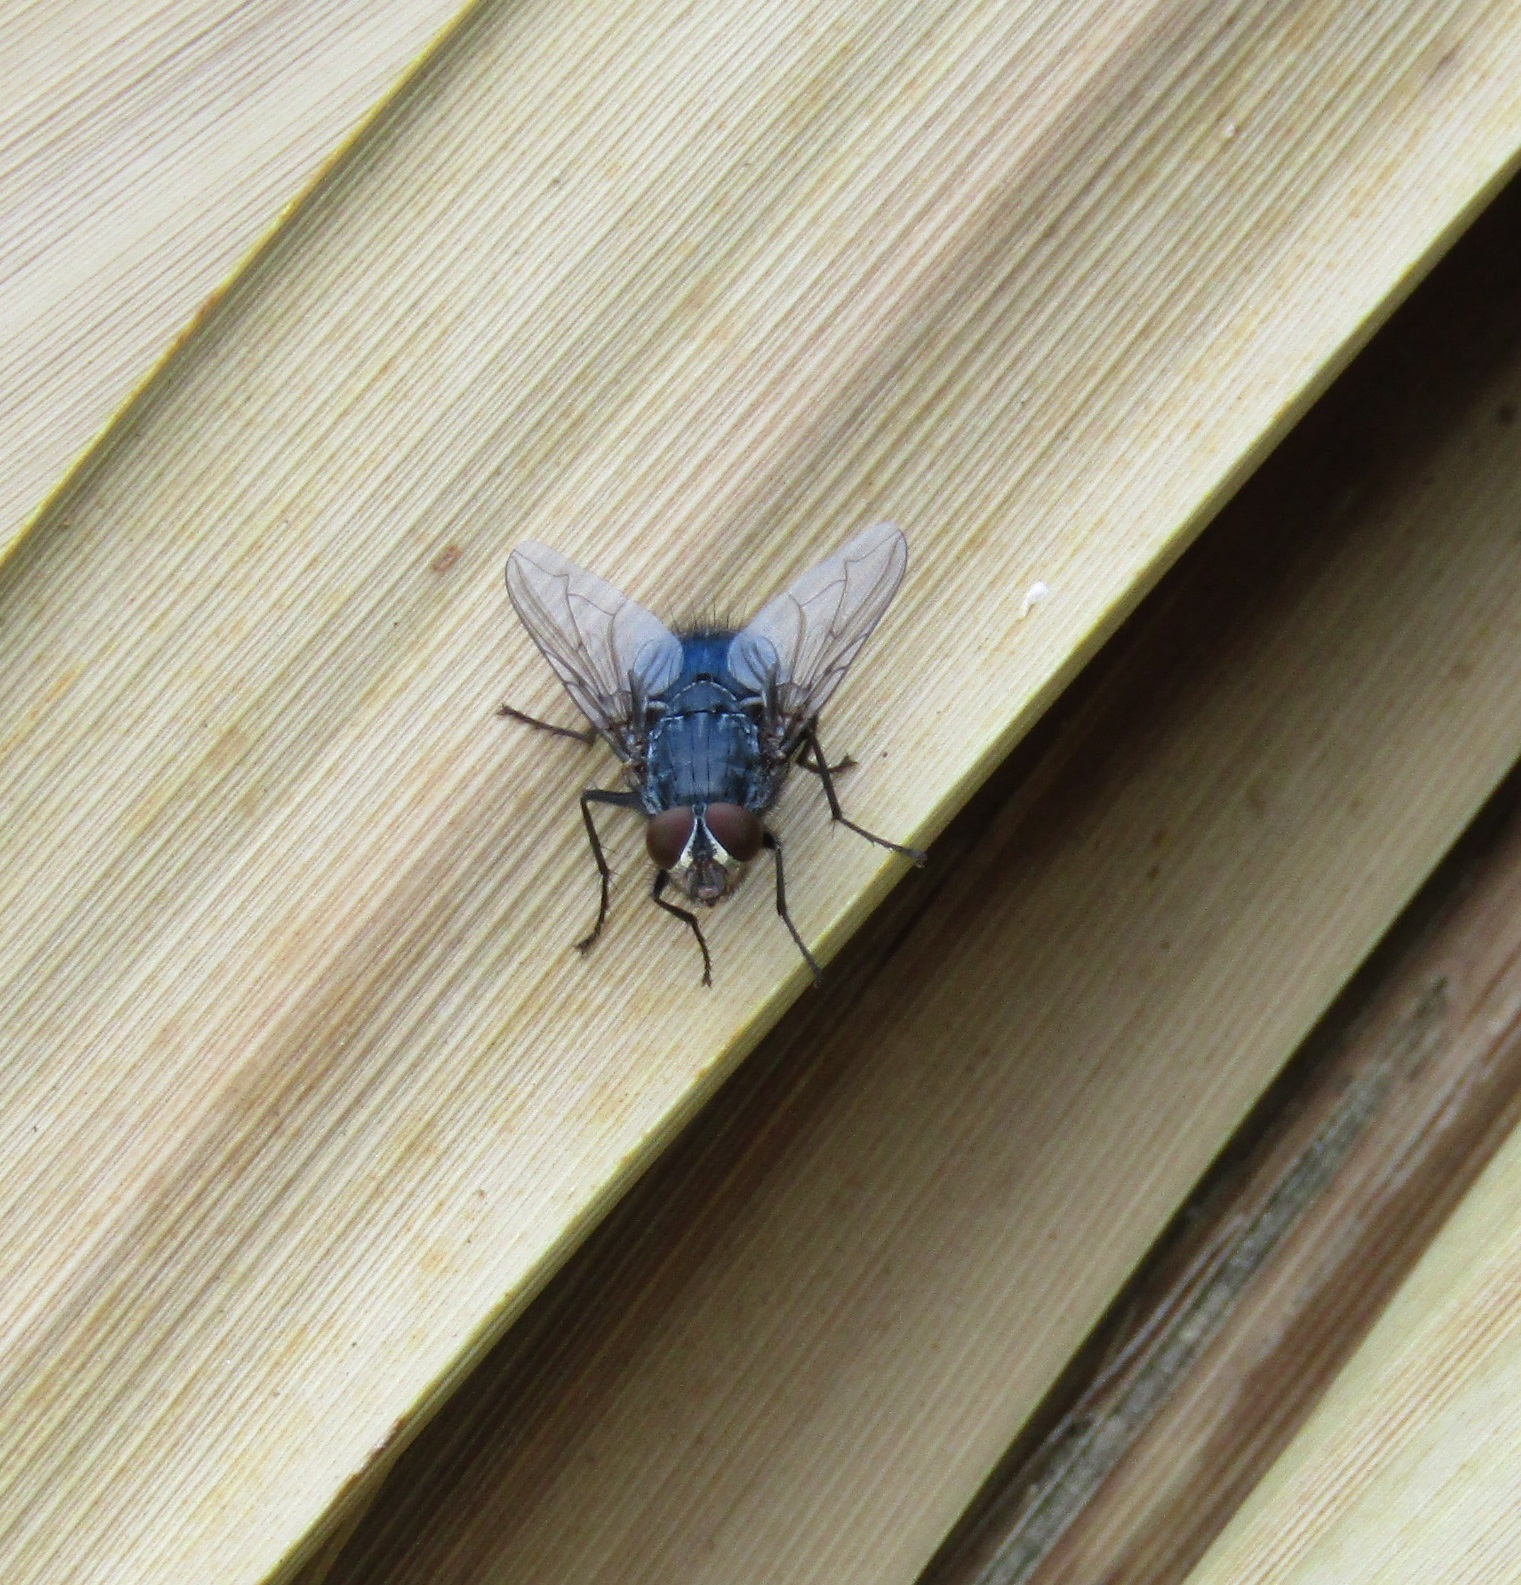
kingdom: Animalia
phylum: Arthropoda
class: Insecta
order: Diptera
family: Calliphoridae
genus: Calliphora
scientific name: Calliphora vicina
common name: Common blow flie
